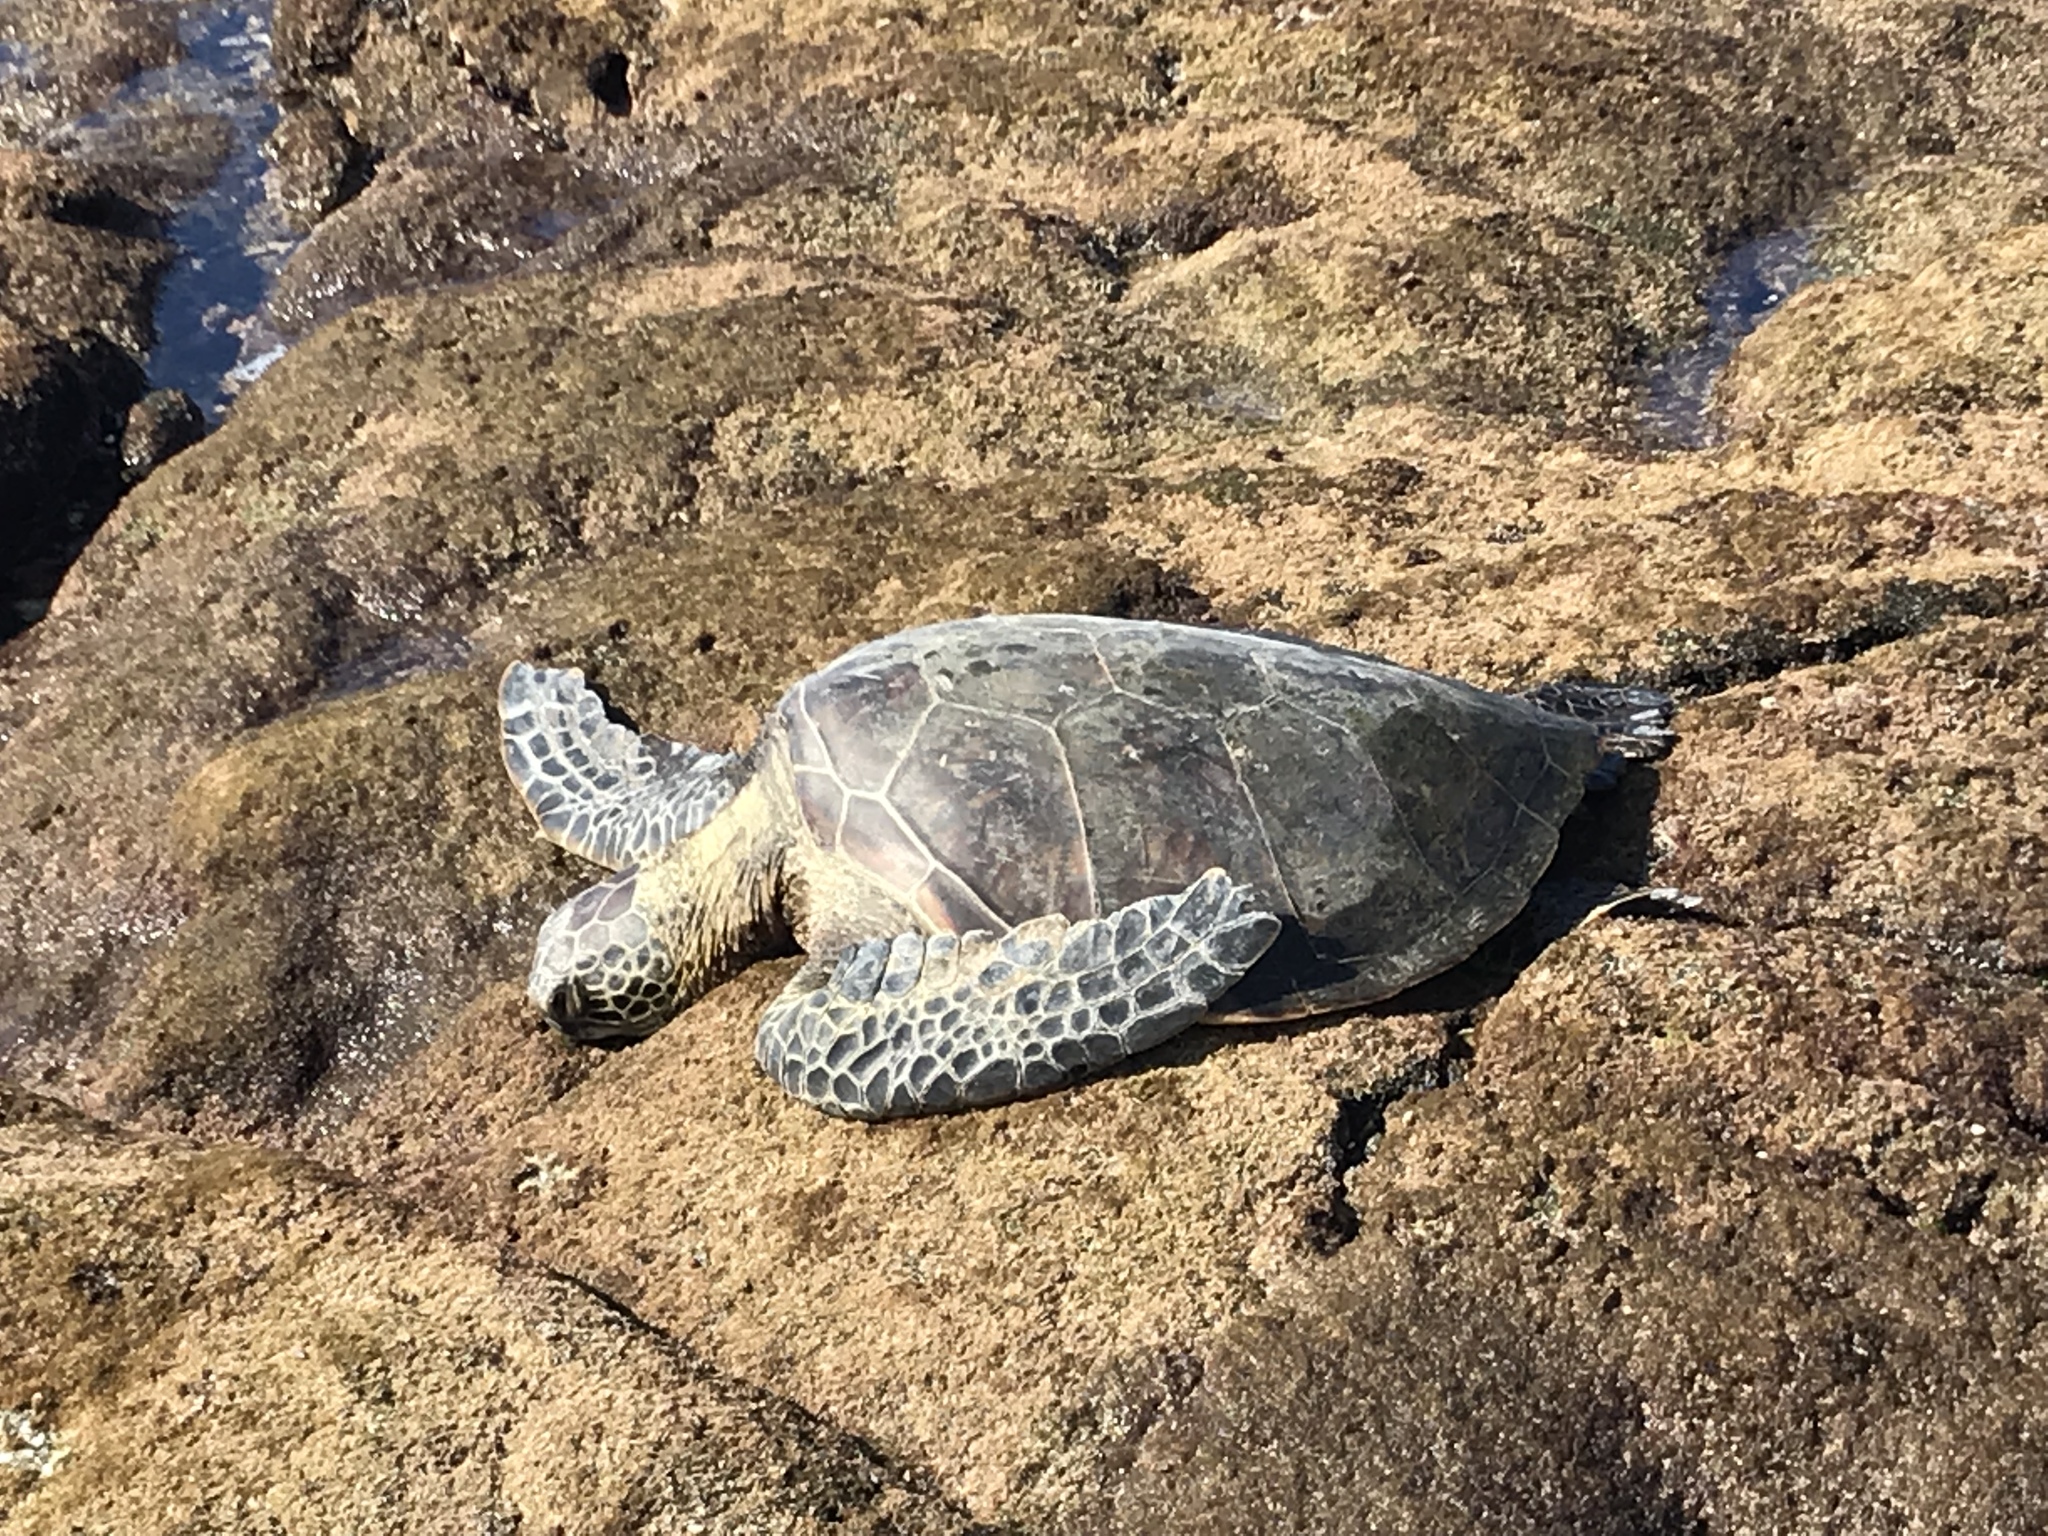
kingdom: Animalia
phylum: Chordata
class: Testudines
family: Cheloniidae
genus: Chelonia
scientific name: Chelonia mydas
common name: Green turtle
